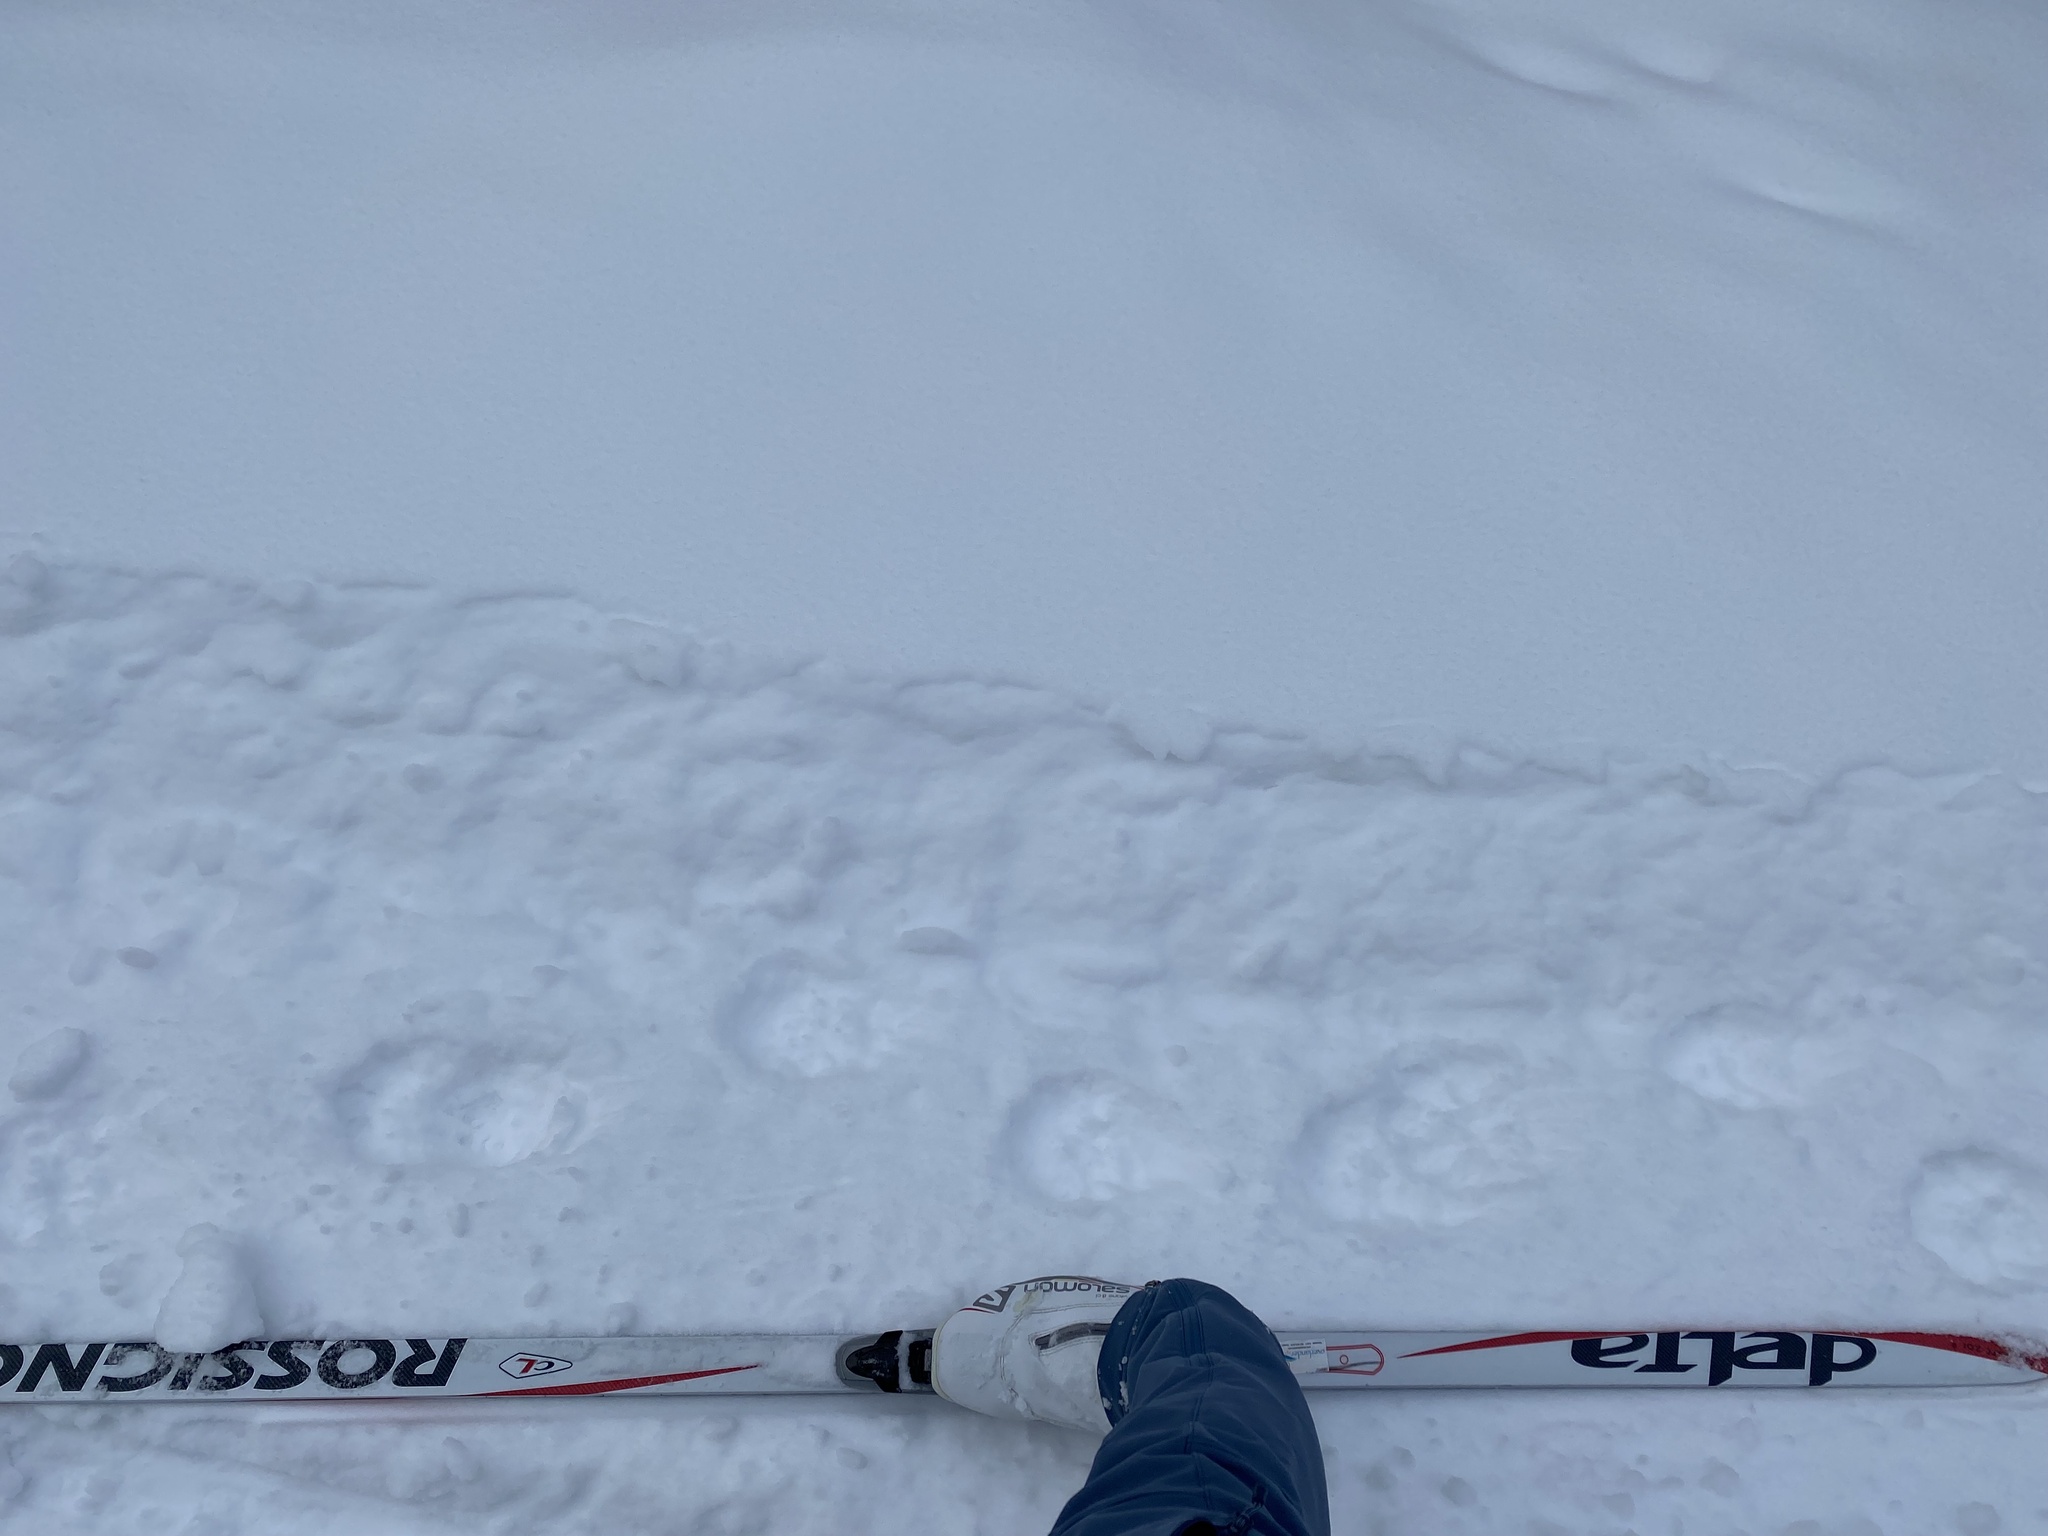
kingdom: Animalia
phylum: Chordata
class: Mammalia
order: Carnivora
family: Mustelidae
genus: Gulo
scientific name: Gulo gulo
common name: Wolverine
